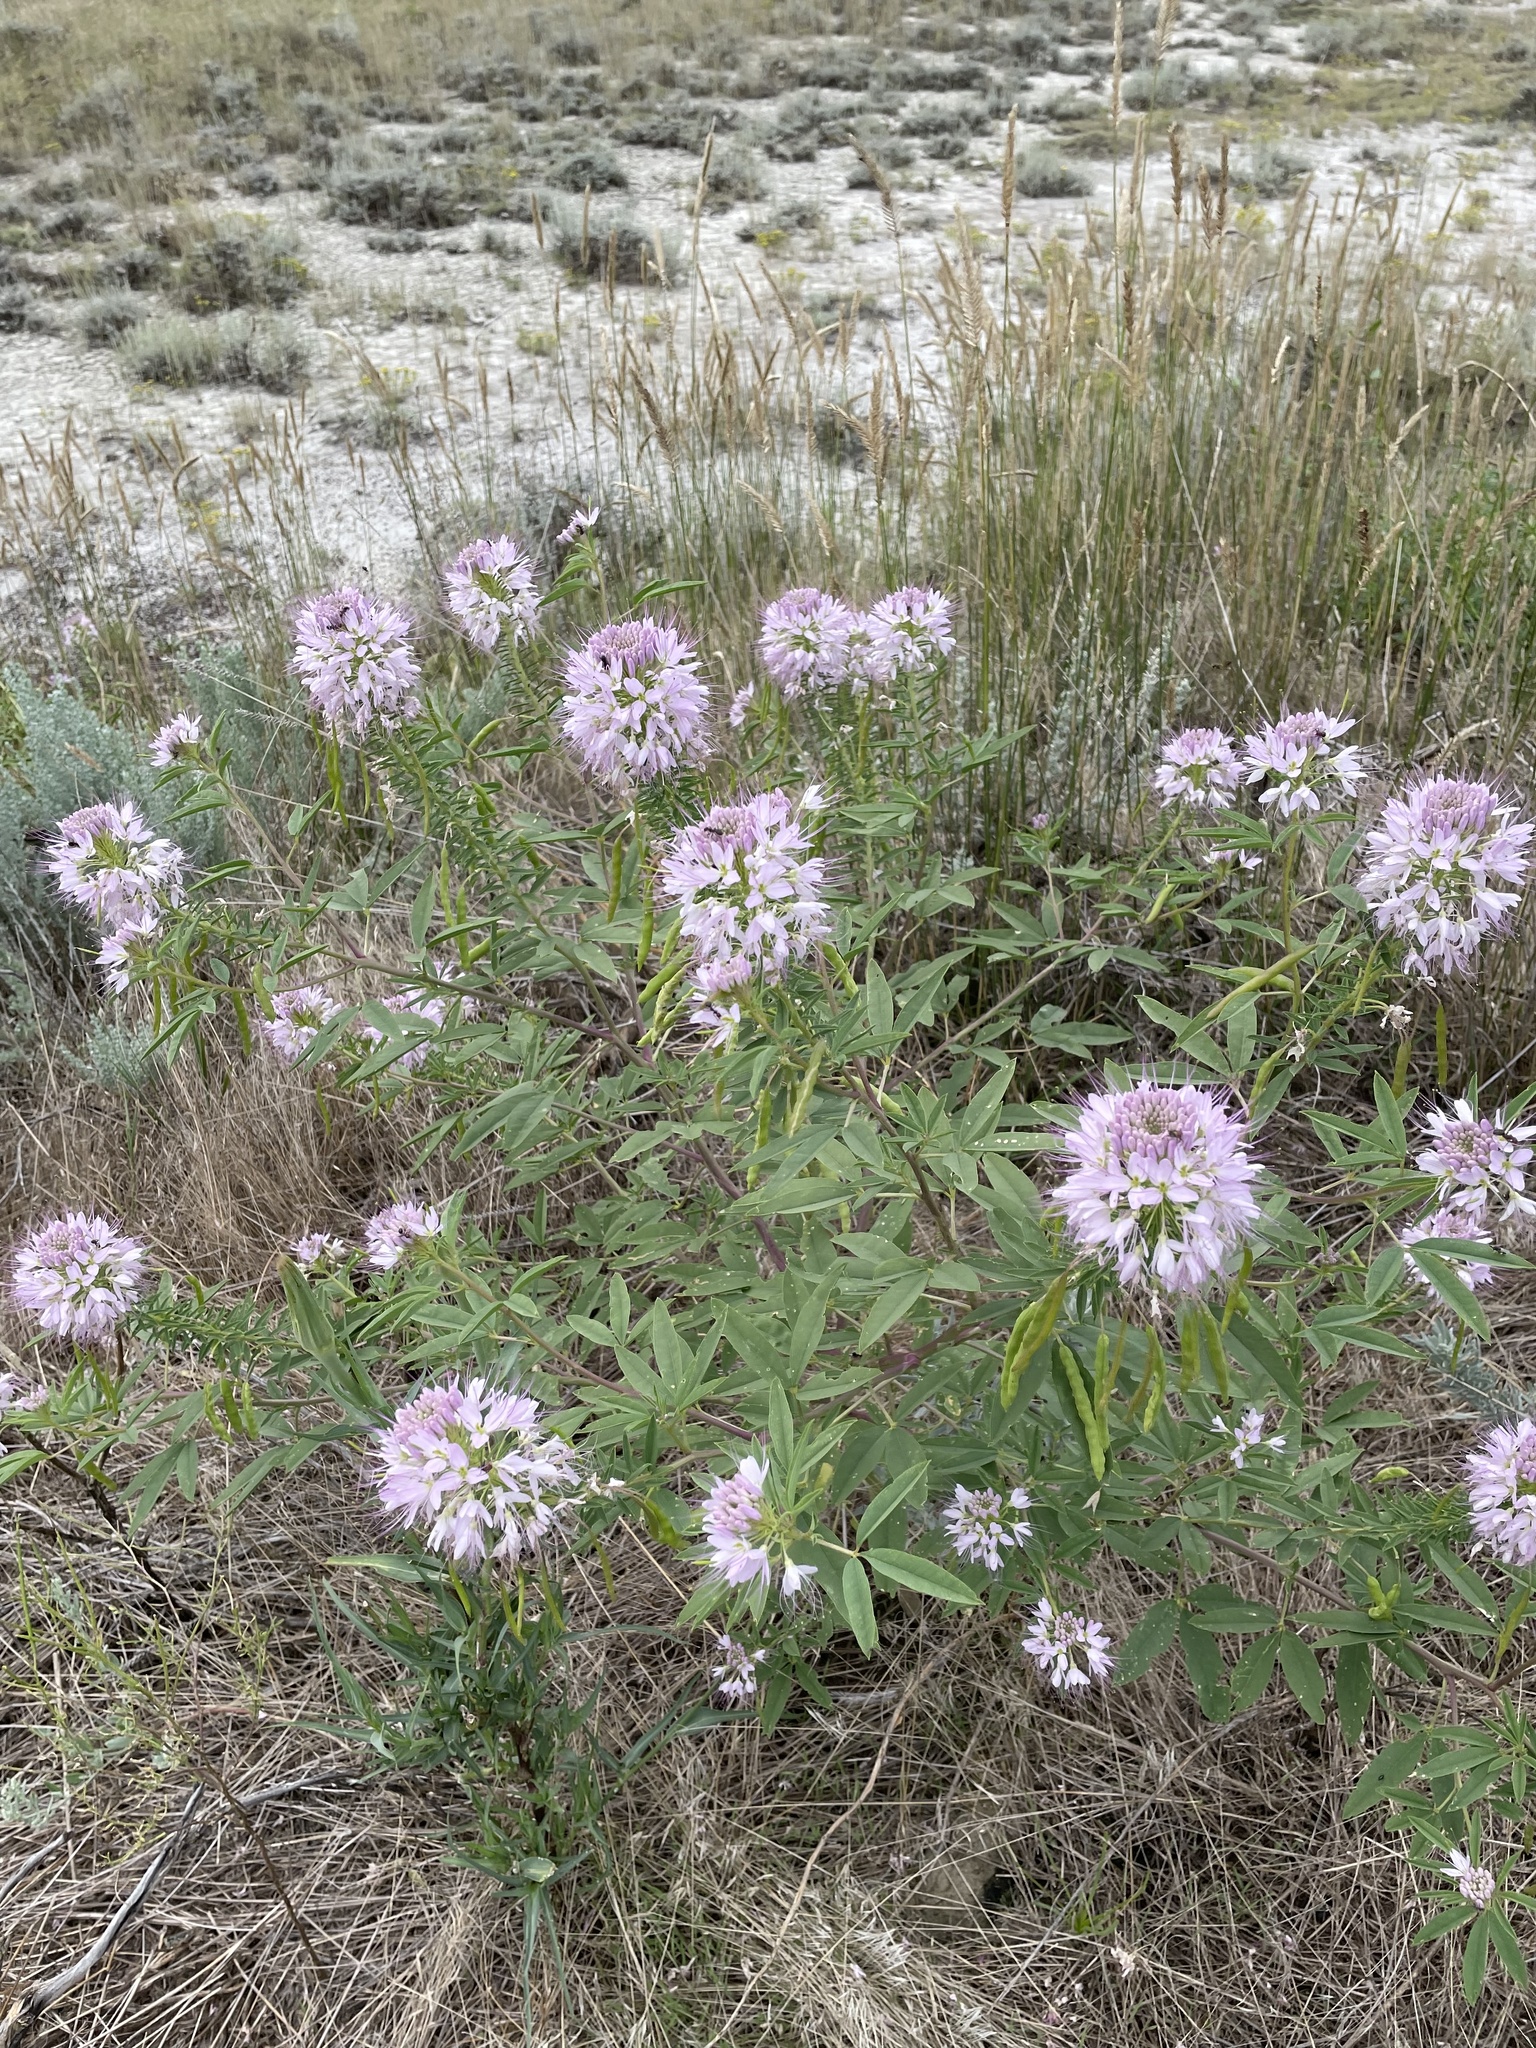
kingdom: Plantae
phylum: Tracheophyta
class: Magnoliopsida
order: Brassicales
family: Cleomaceae
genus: Cleomella
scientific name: Cleomella serrulata
